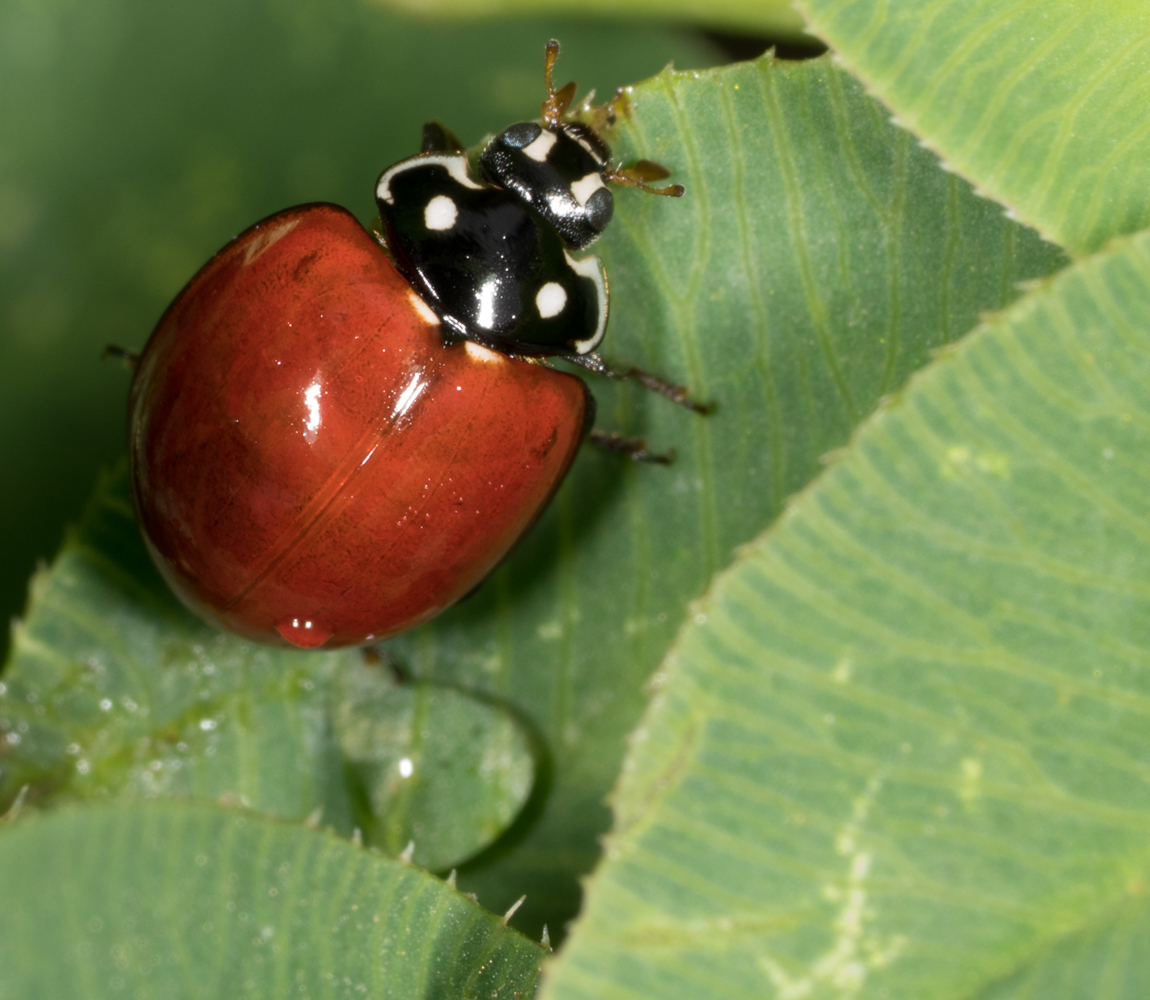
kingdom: Animalia
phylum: Arthropoda
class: Insecta
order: Coleoptera
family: Coccinellidae
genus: Cycloneda
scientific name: Cycloneda sanguinea
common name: Ladybird beetle
